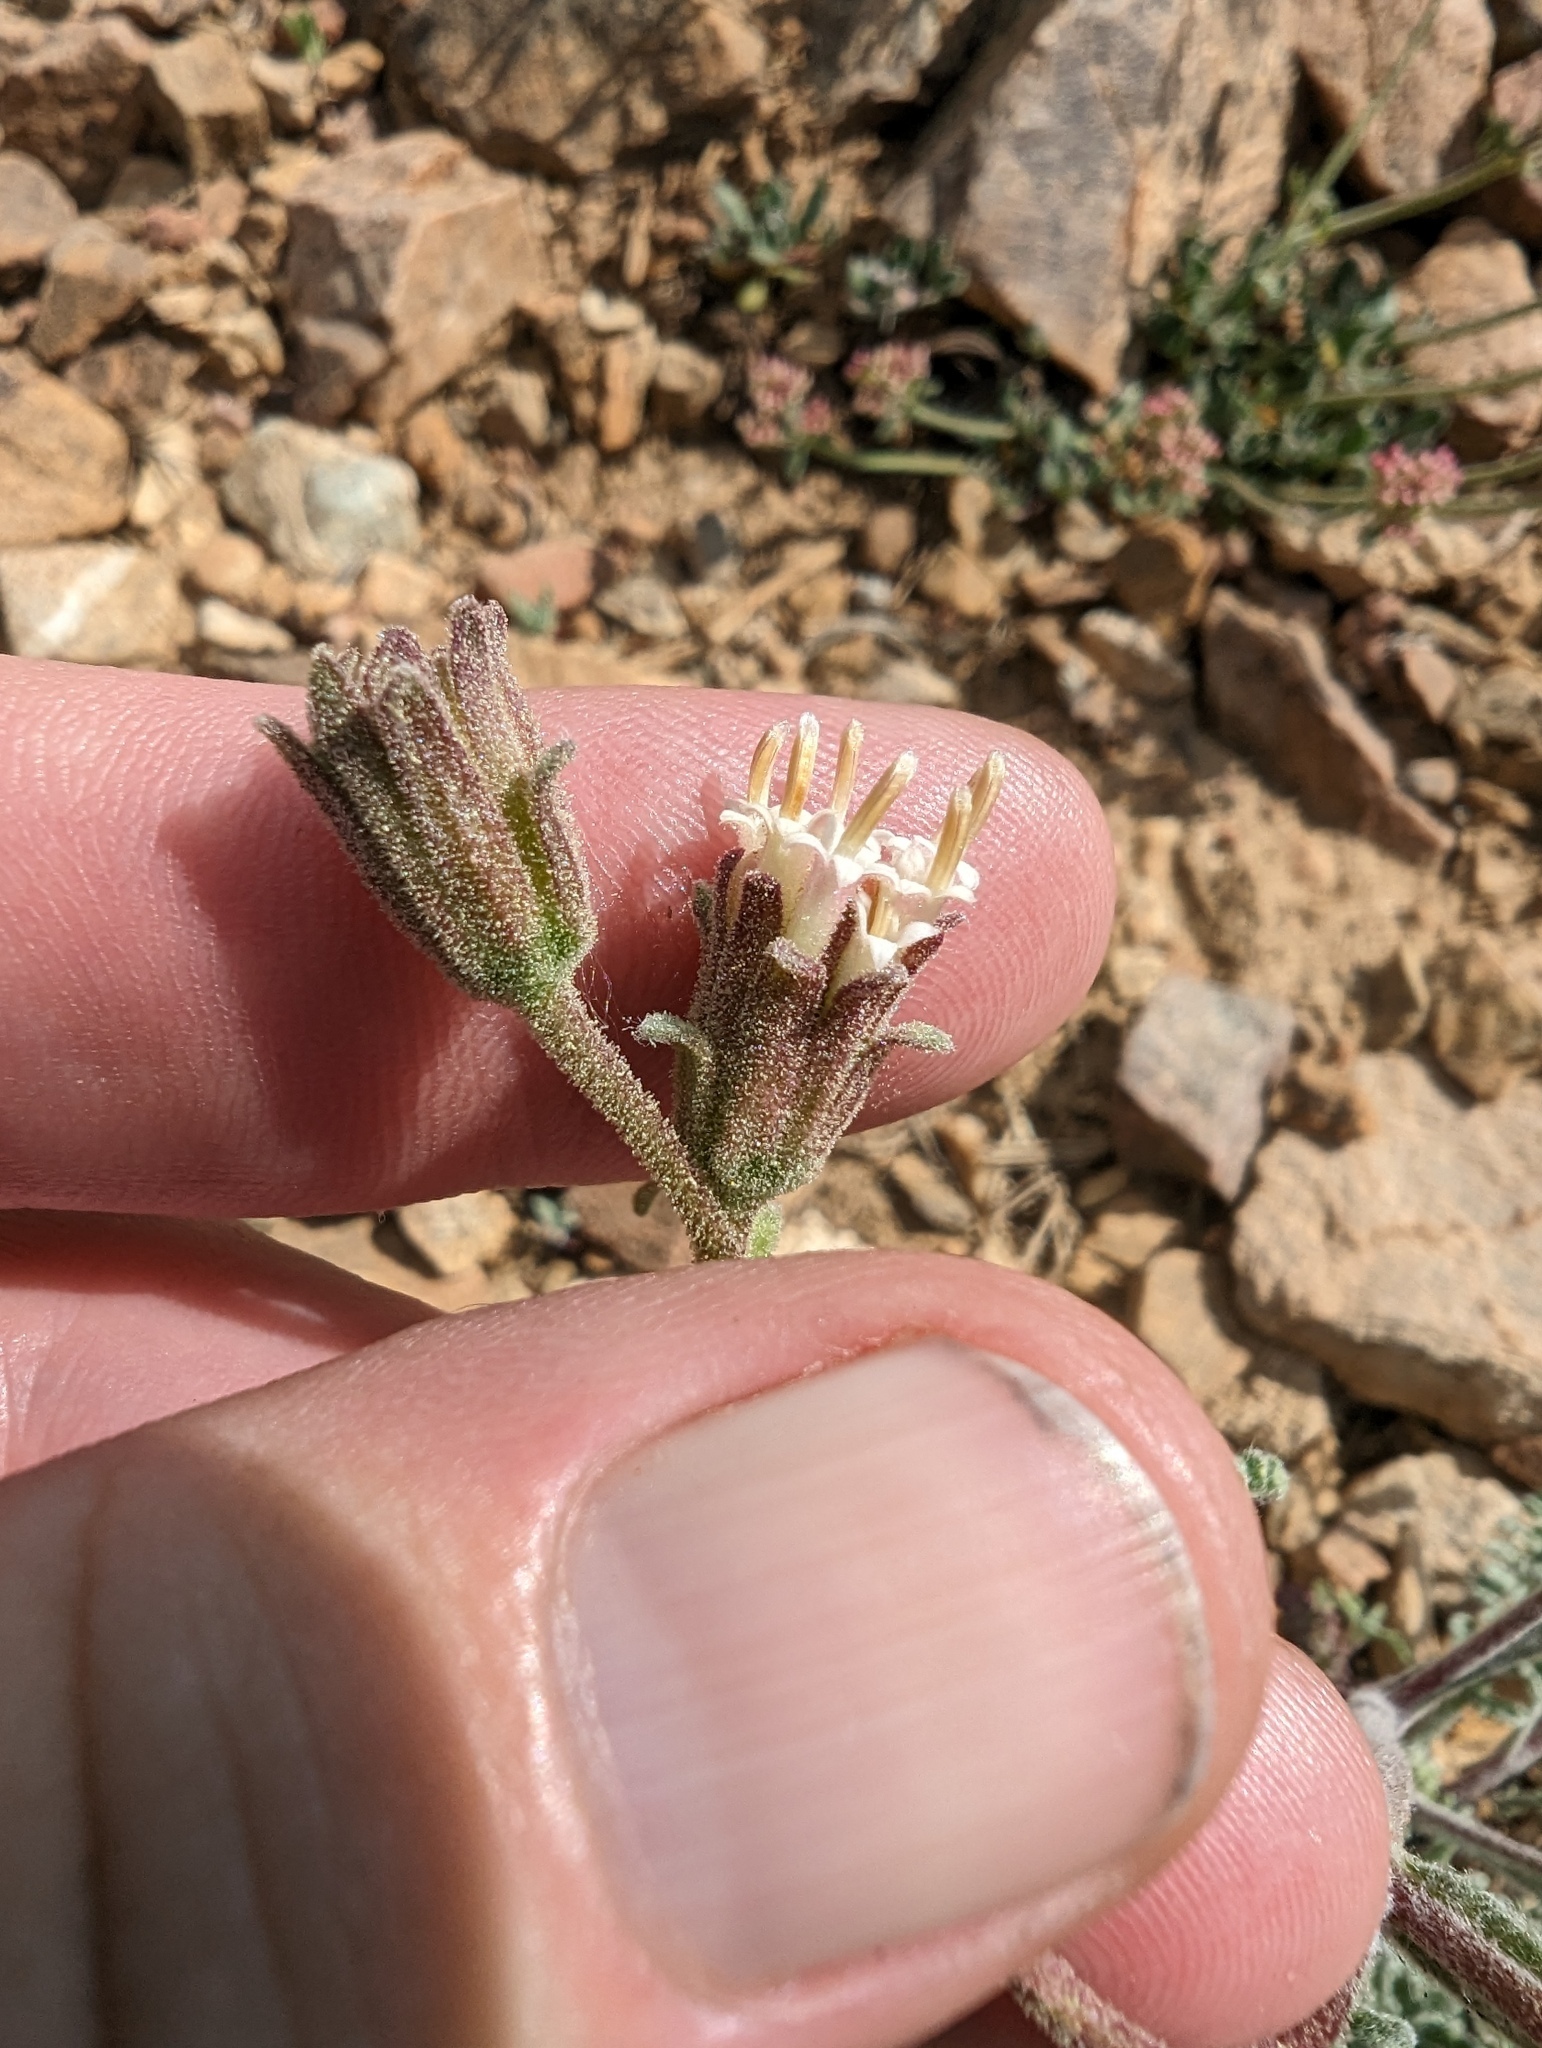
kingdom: Plantae
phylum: Tracheophyta
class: Magnoliopsida
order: Asterales
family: Asteraceae
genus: Chaenactis
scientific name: Chaenactis douglasii
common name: Hoary pincushion
